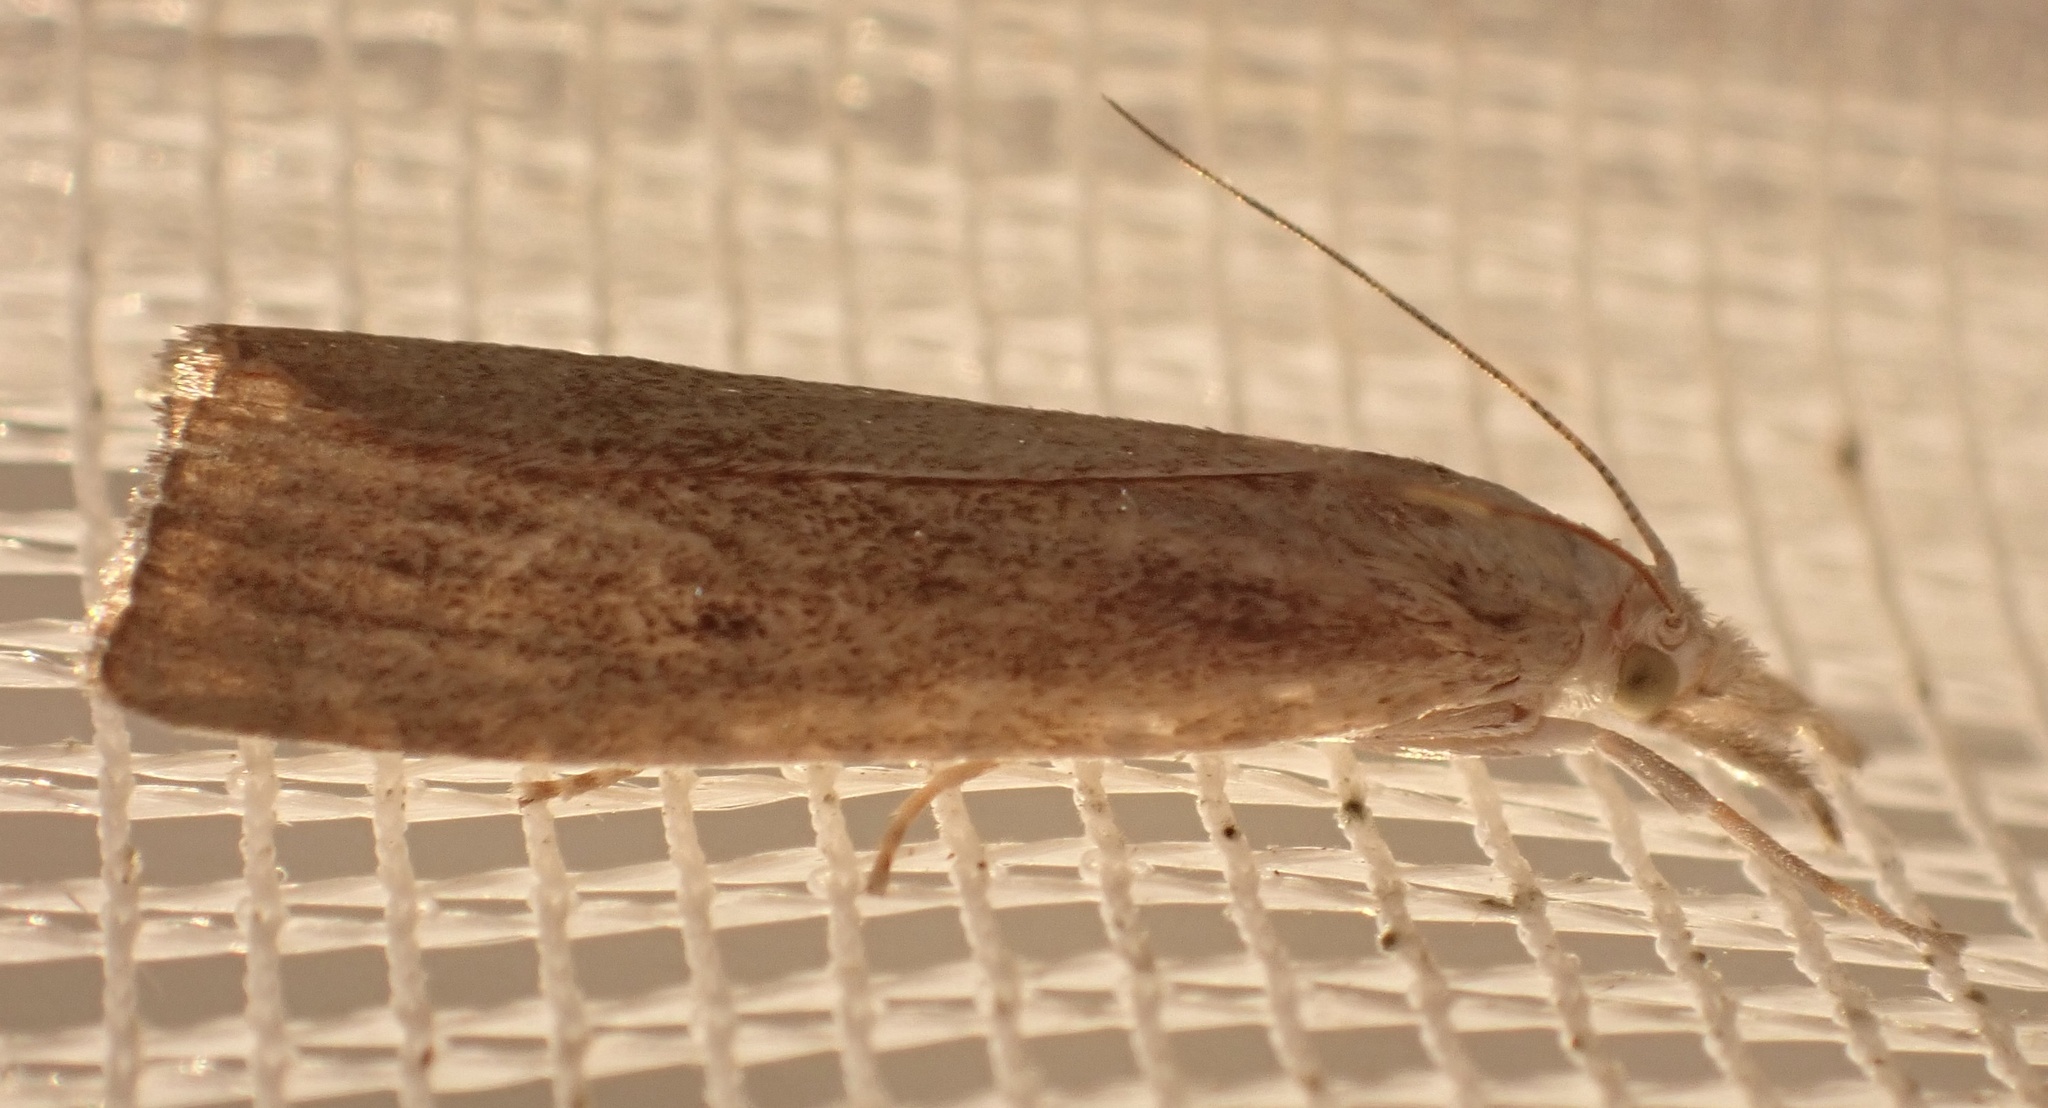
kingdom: Animalia
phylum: Arthropoda
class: Insecta
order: Lepidoptera
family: Crambidae
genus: Calamotropha
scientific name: Calamotropha paludella
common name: Bulrush veneer
